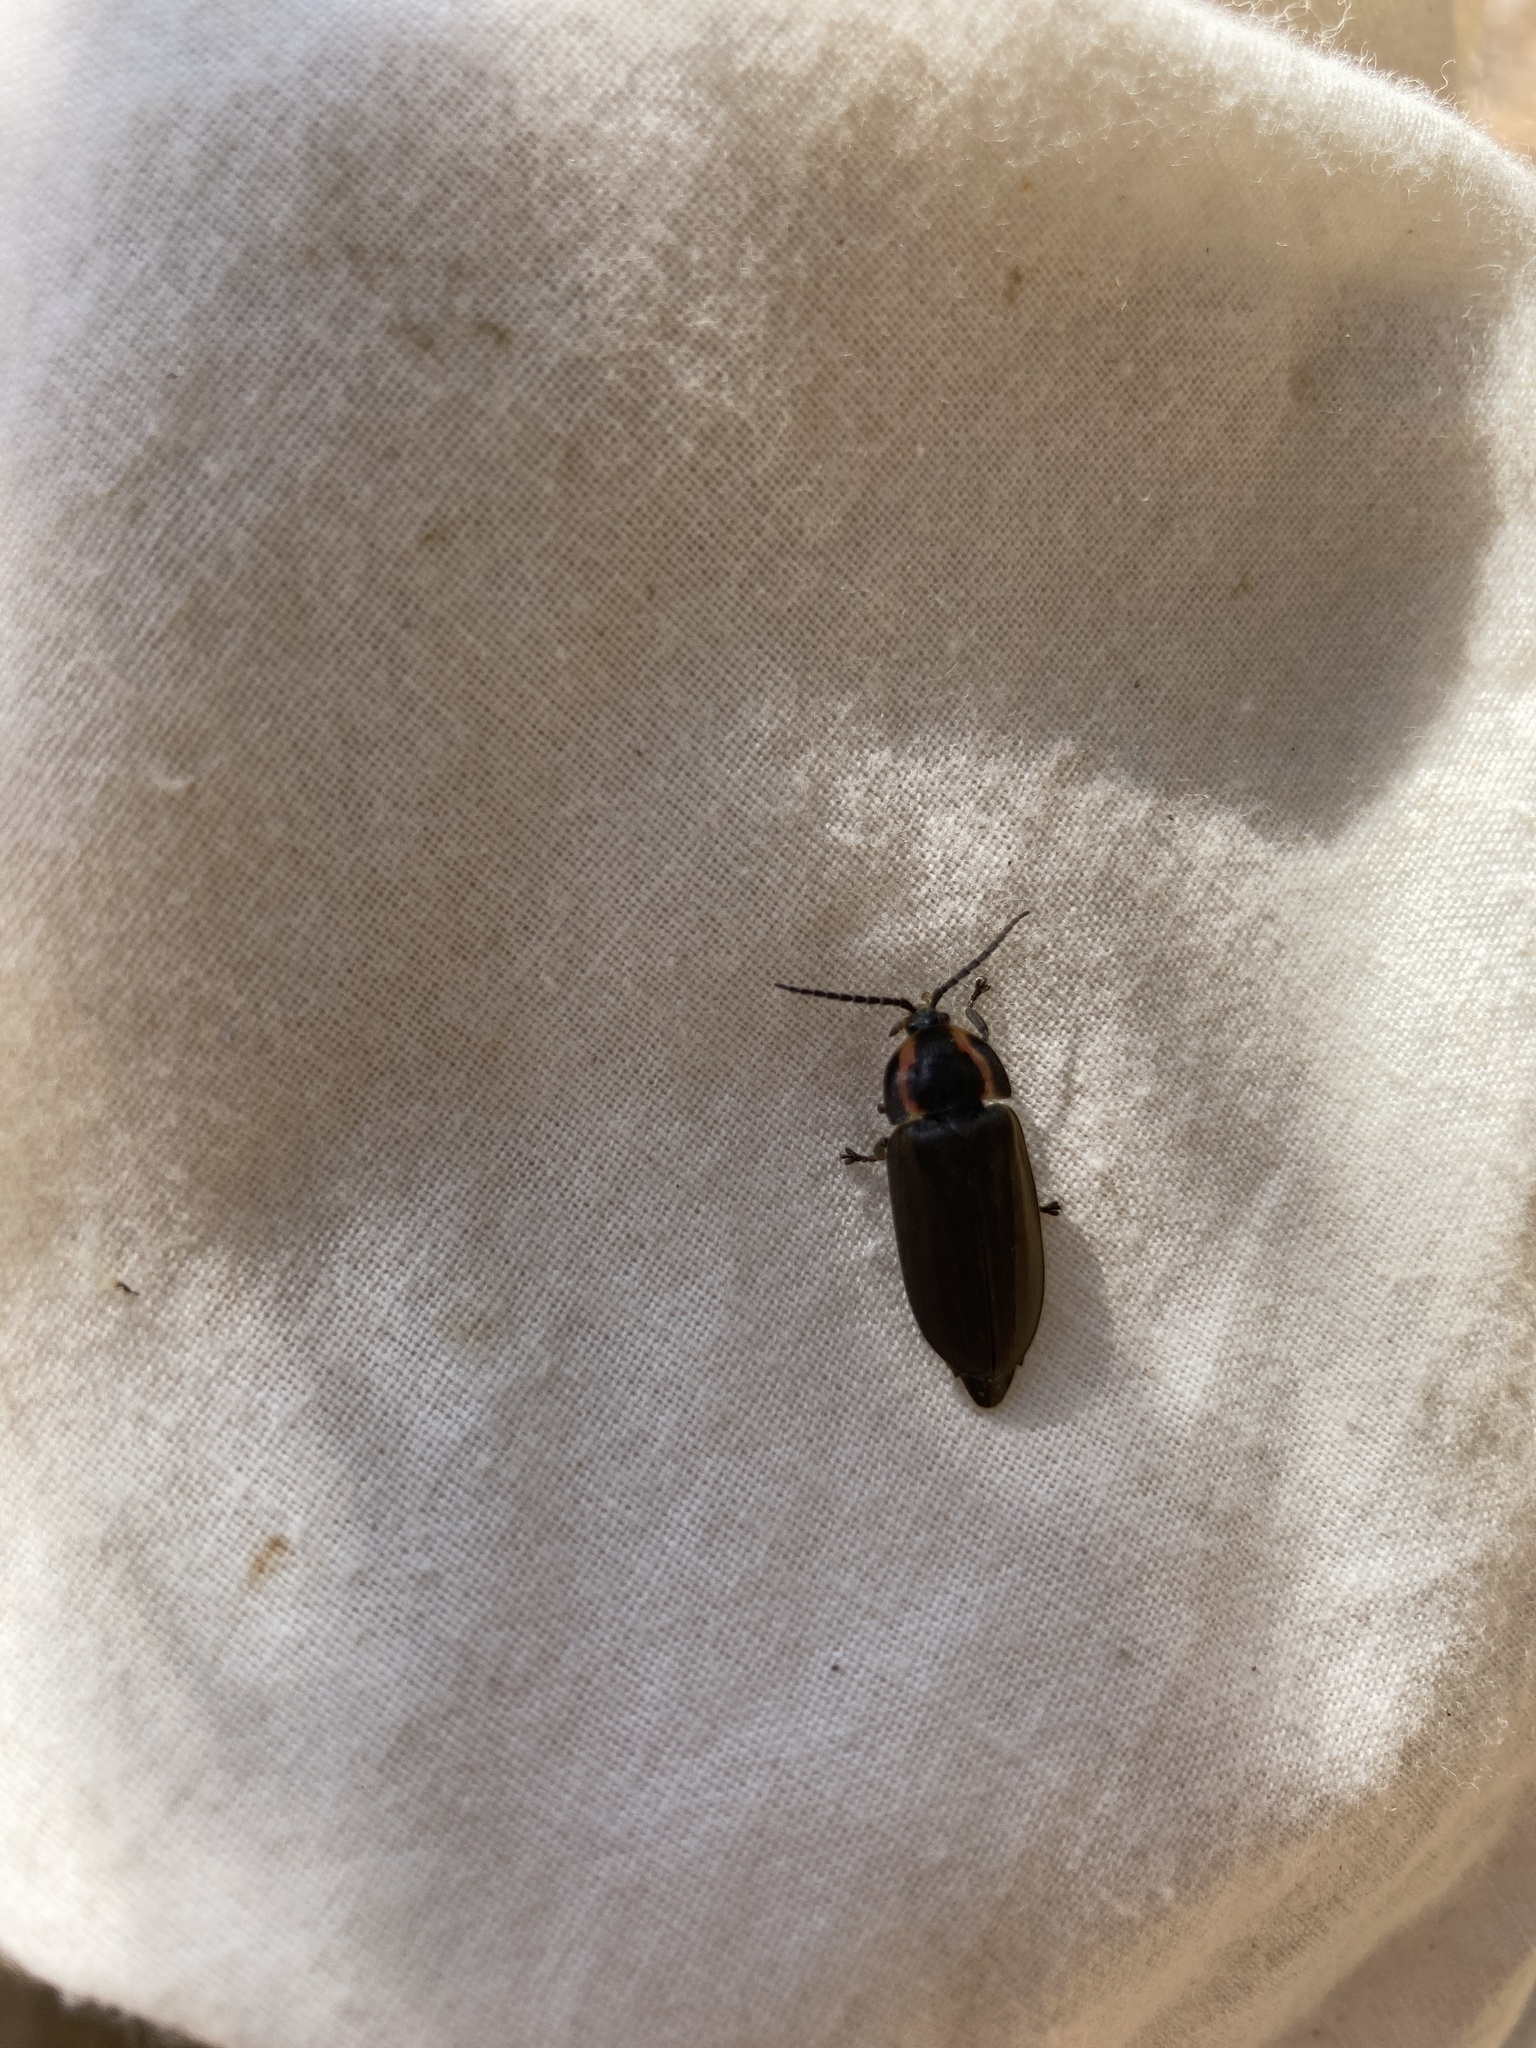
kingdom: Animalia
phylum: Arthropoda
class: Insecta
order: Coleoptera
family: Lampyridae
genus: Photinus
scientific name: Photinus corrusca
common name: Winter firefly
